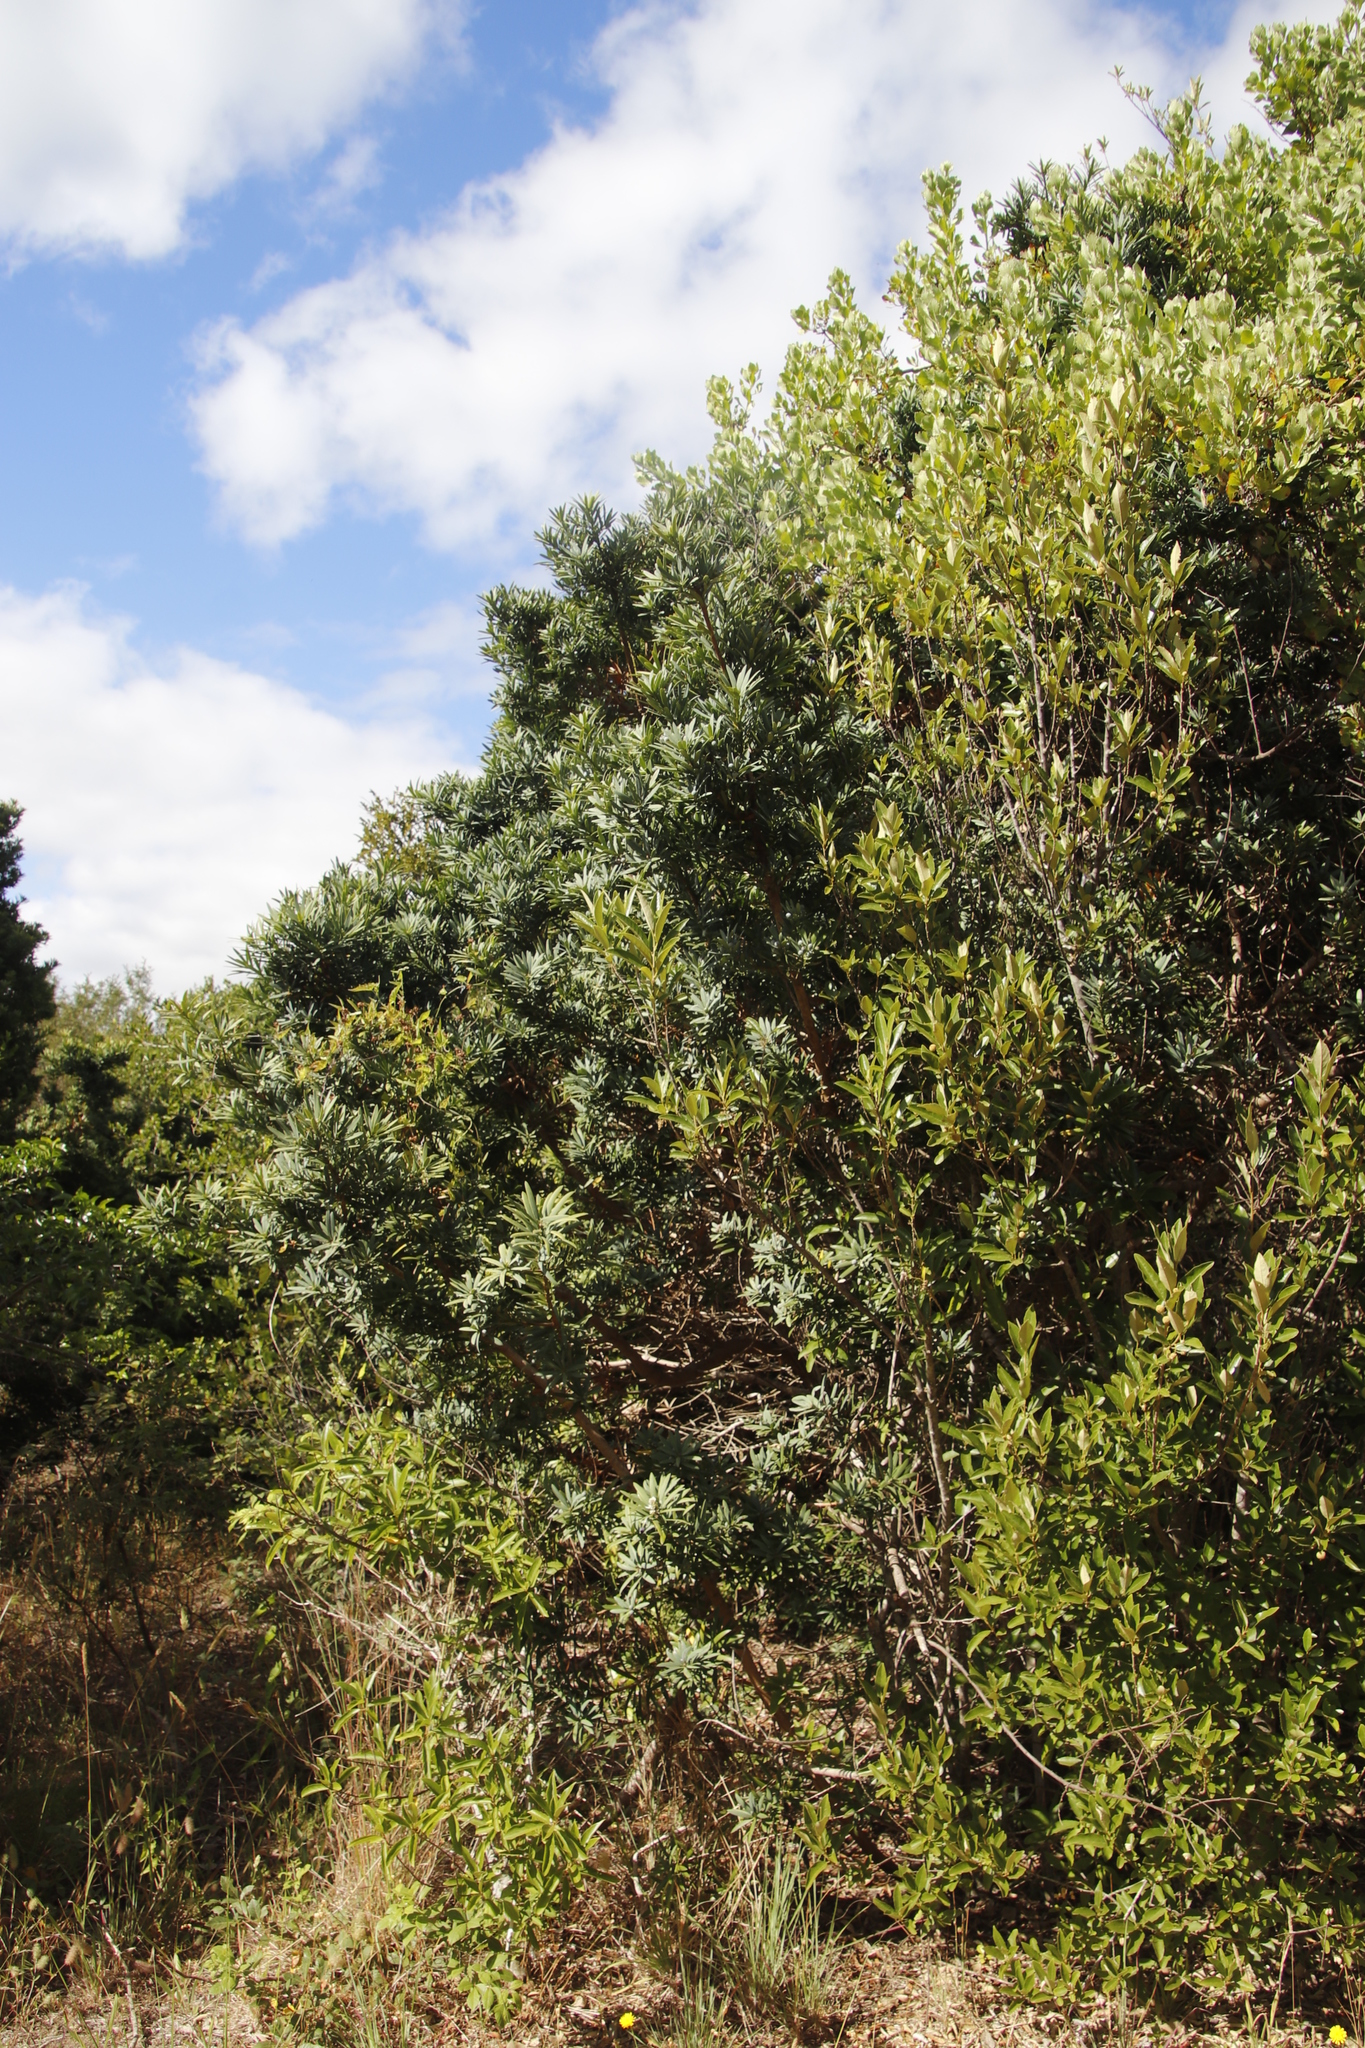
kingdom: Plantae
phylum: Tracheophyta
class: Pinopsida
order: Pinales
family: Podocarpaceae
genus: Podocarpus
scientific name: Podocarpus latifolius
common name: True yellowwood
